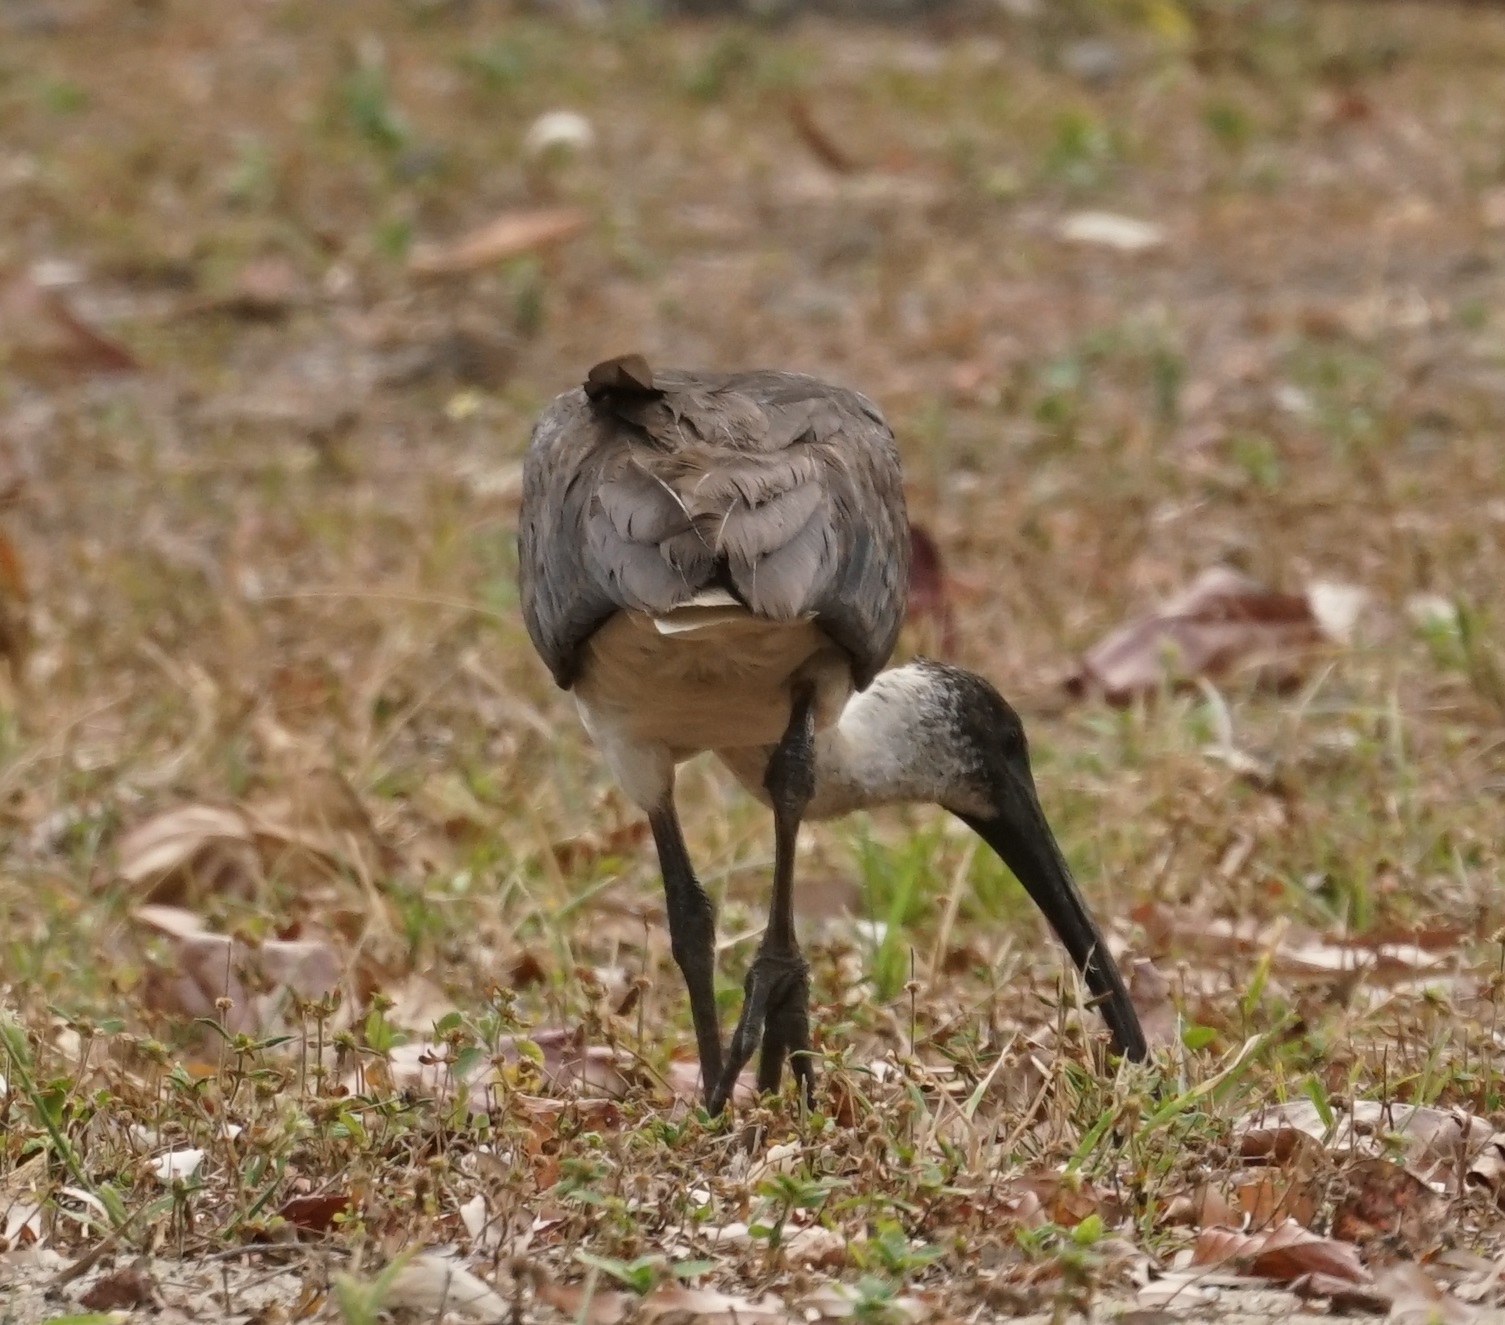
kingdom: Animalia
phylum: Chordata
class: Aves
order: Pelecaniformes
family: Threskiornithidae
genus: Threskiornis
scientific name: Threskiornis spinicollis
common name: Straw-necked ibis
